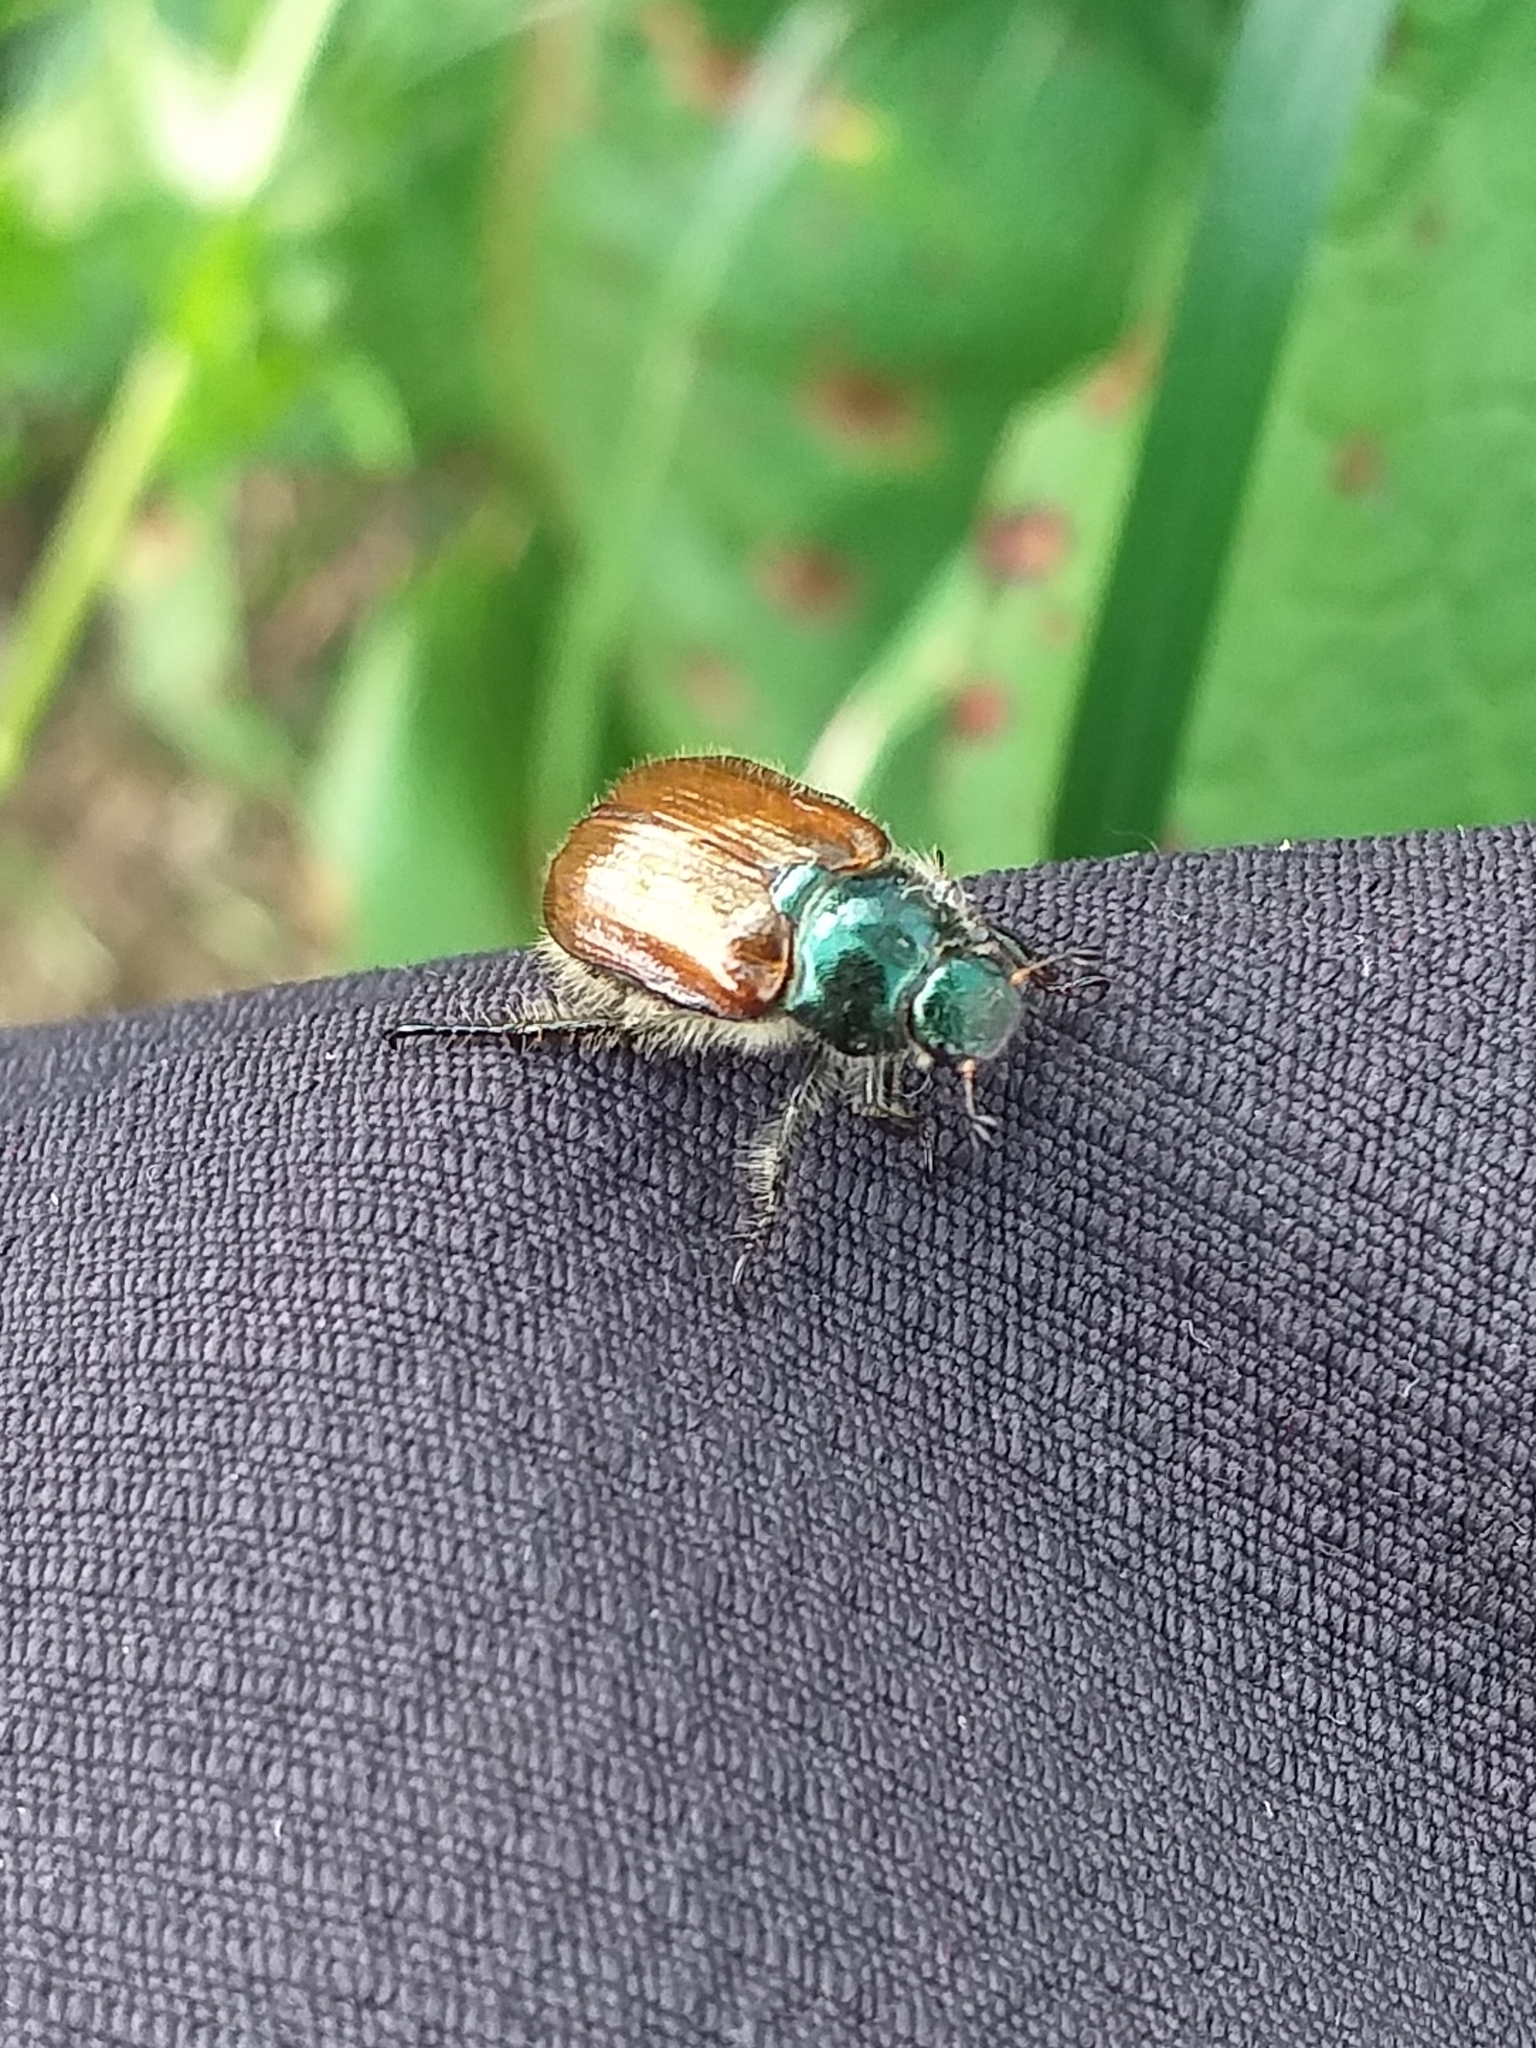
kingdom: Animalia
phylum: Arthropoda
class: Insecta
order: Coleoptera
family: Scarabaeidae
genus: Phyllopertha
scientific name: Phyllopertha horticola
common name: Garden chafer
